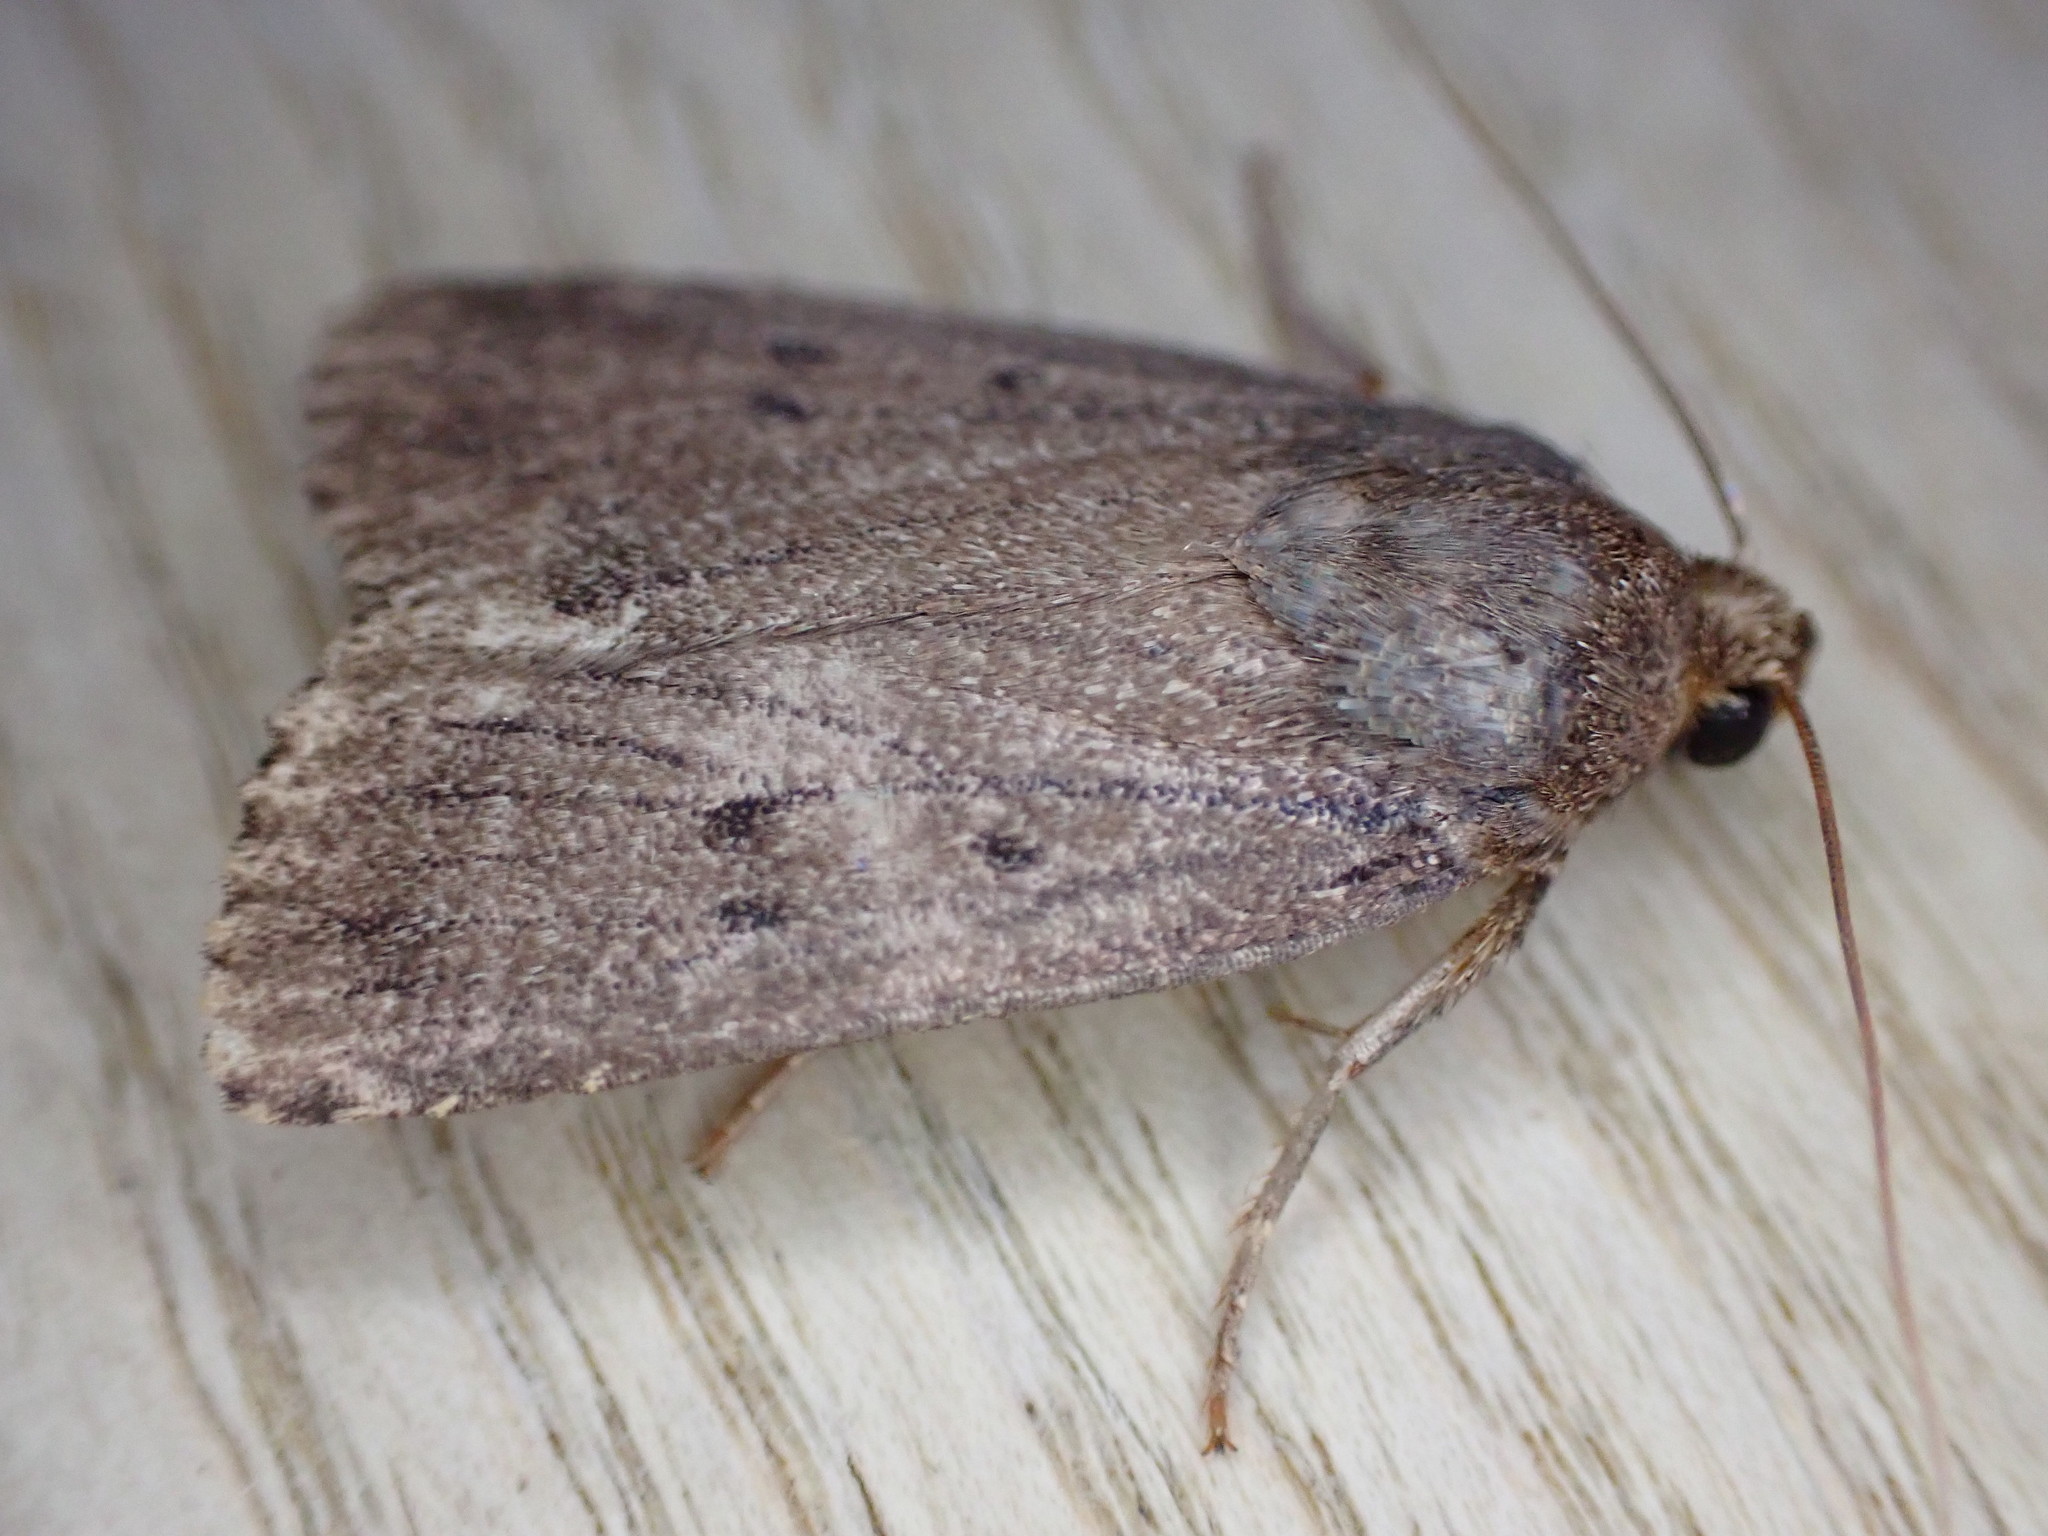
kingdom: Animalia
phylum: Arthropoda
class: Insecta
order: Lepidoptera
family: Noctuidae
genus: Amphipyra
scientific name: Amphipyra tragopoginis
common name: Mouse moth
